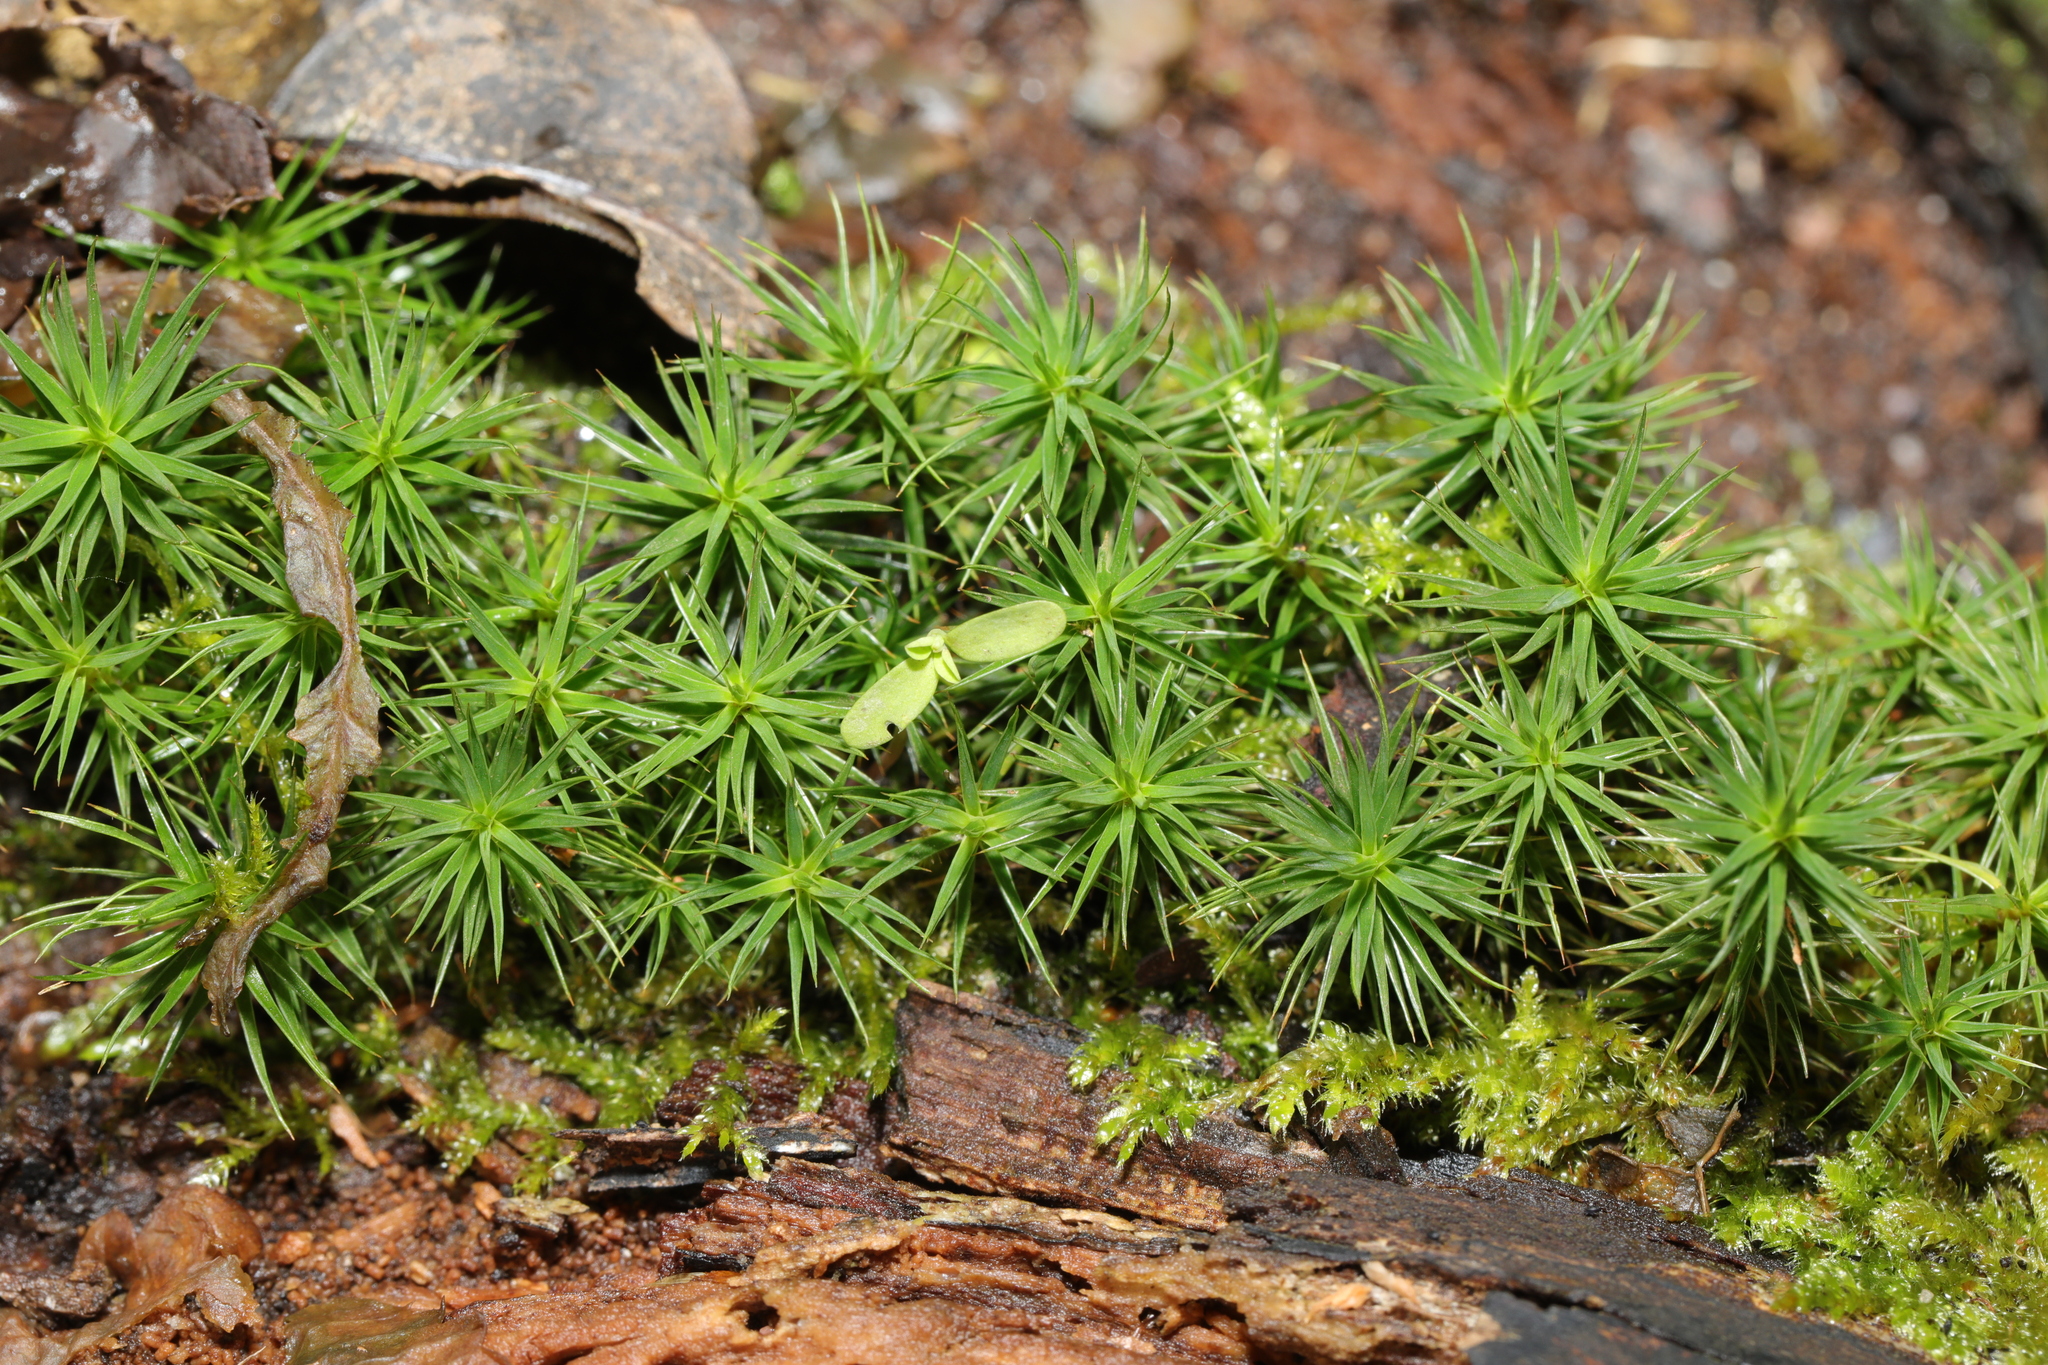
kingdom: Plantae
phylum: Bryophyta
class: Polytrichopsida
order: Polytrichales
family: Polytrichaceae
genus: Polytrichum
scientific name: Polytrichum formosum
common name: Bank haircap moss
